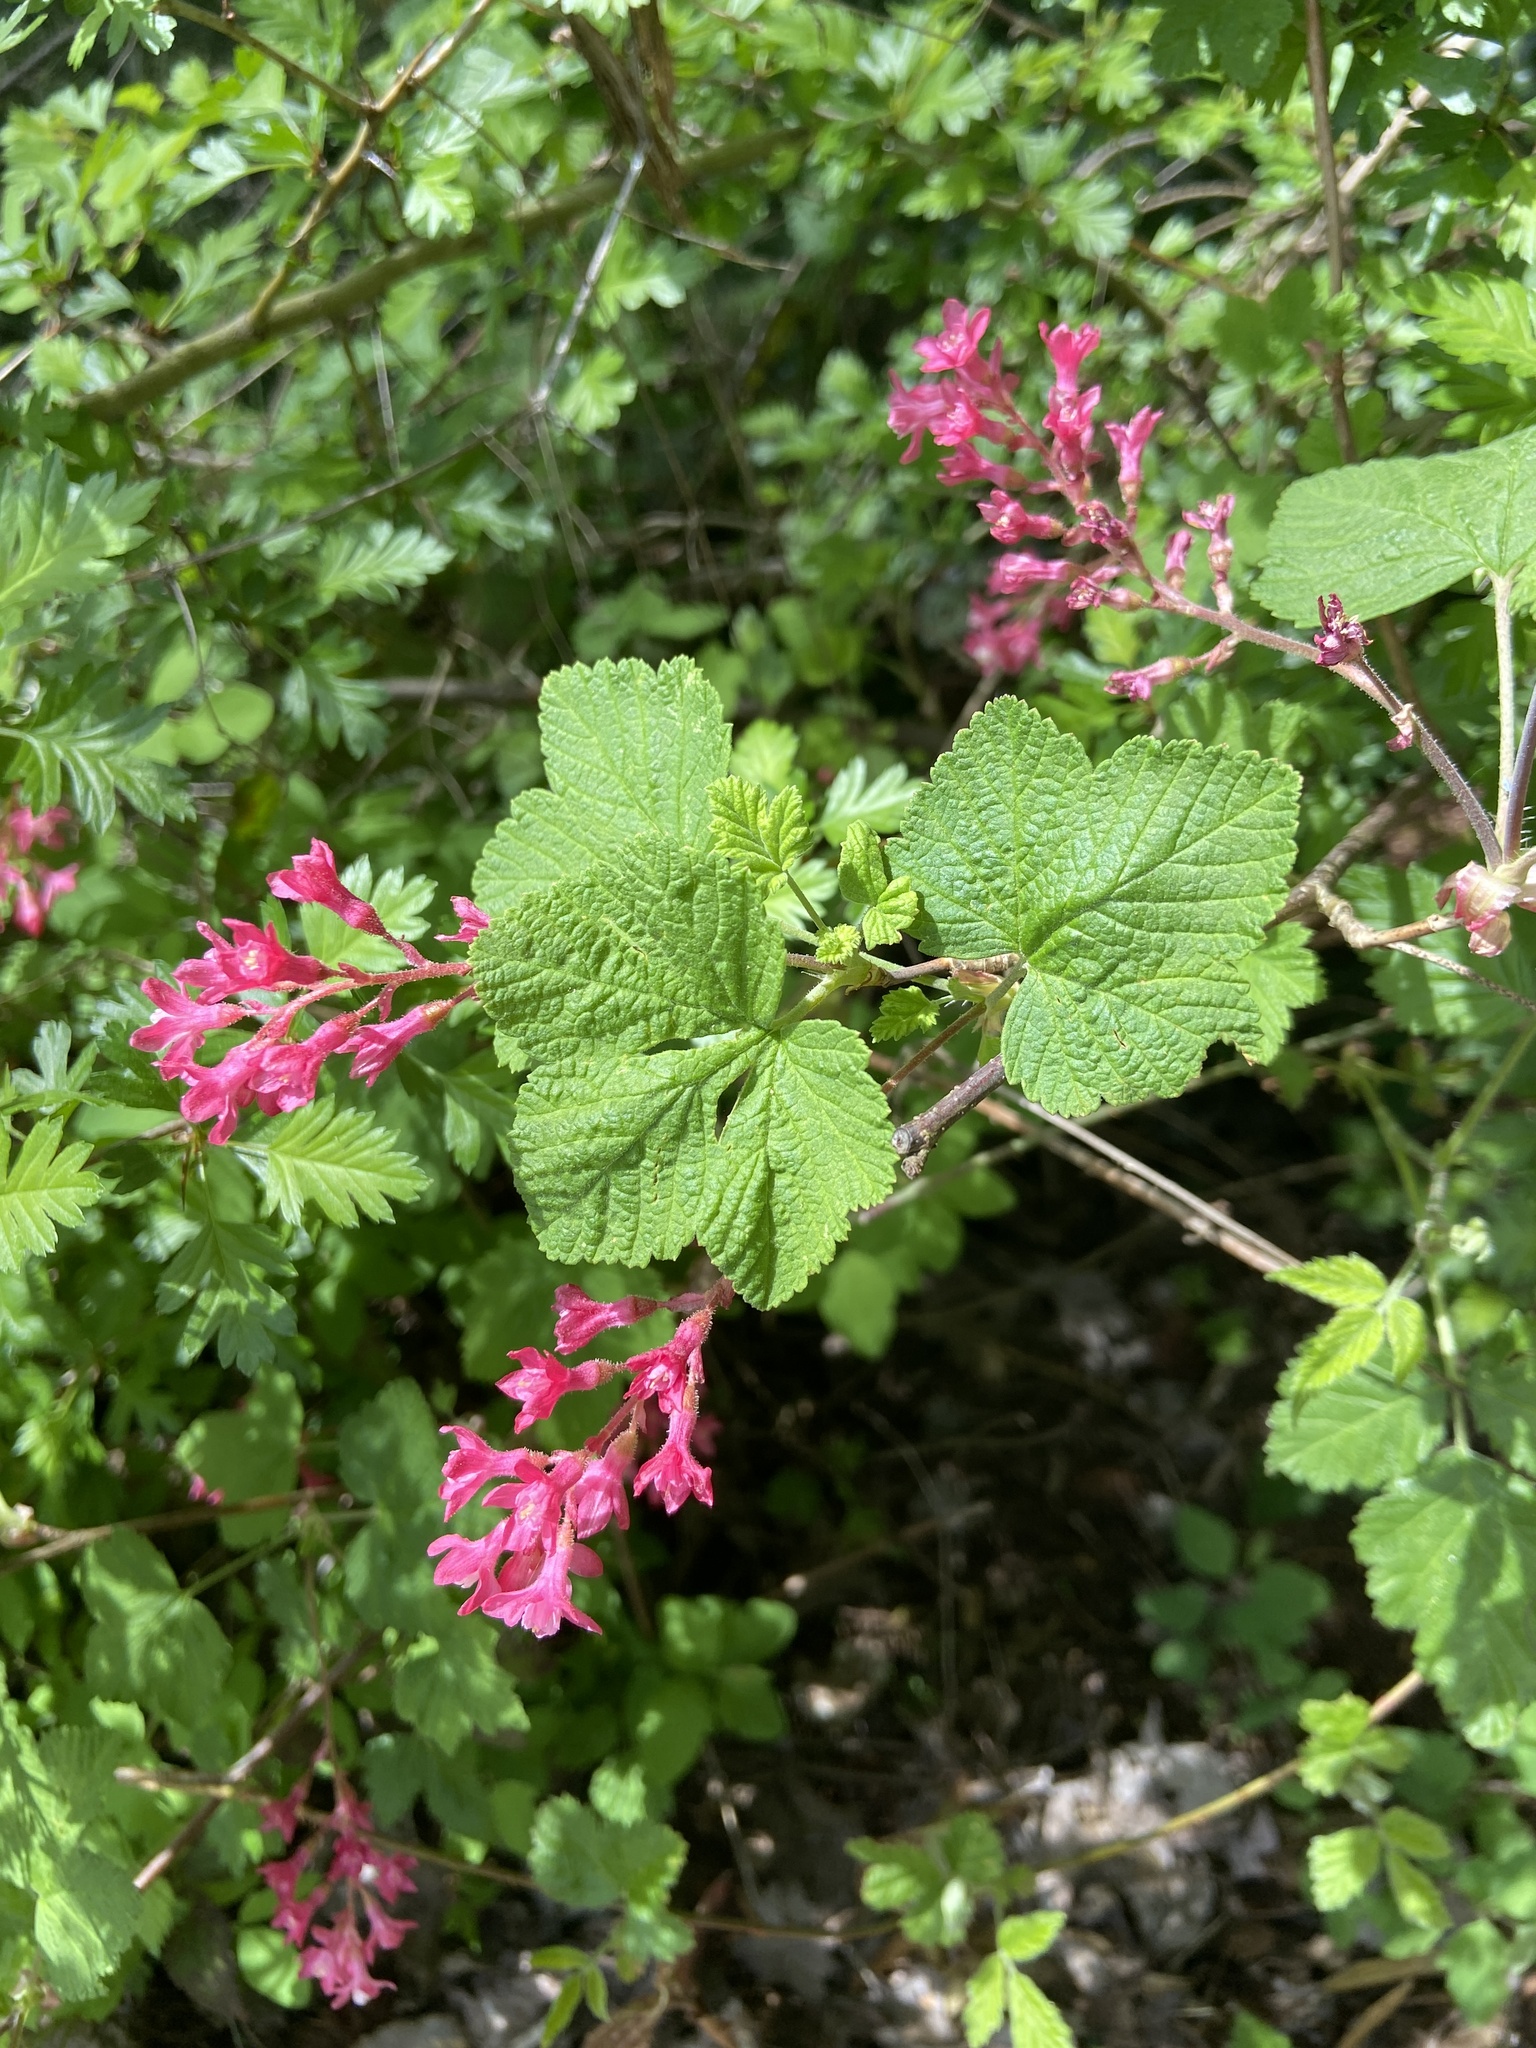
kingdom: Plantae
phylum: Tracheophyta
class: Magnoliopsida
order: Saxifragales
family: Grossulariaceae
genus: Ribes
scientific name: Ribes sanguineum
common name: Flowering currant
